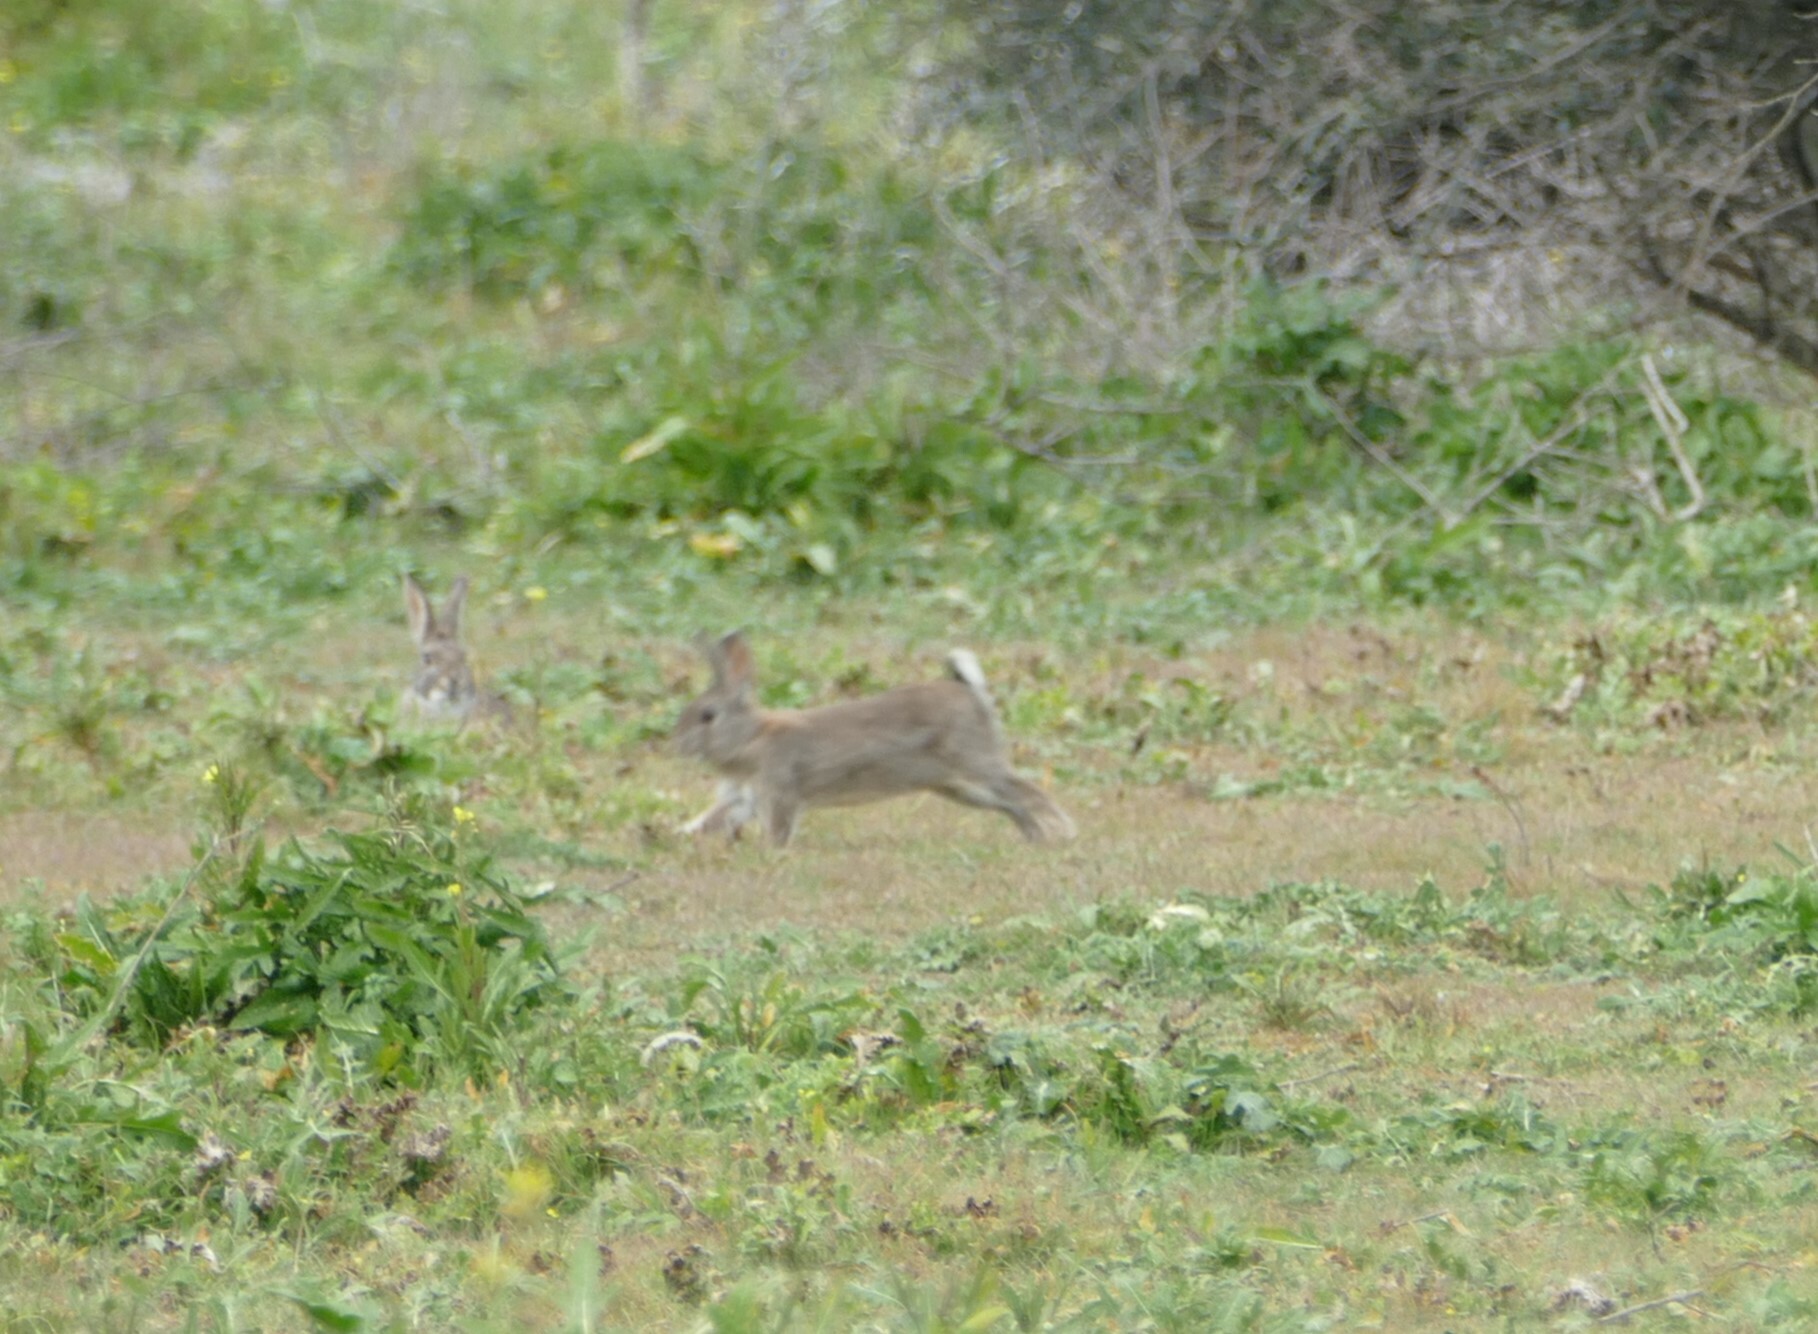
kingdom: Animalia
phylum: Chordata
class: Mammalia
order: Lagomorpha
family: Leporidae
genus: Oryctolagus
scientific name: Oryctolagus cuniculus
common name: European rabbit
